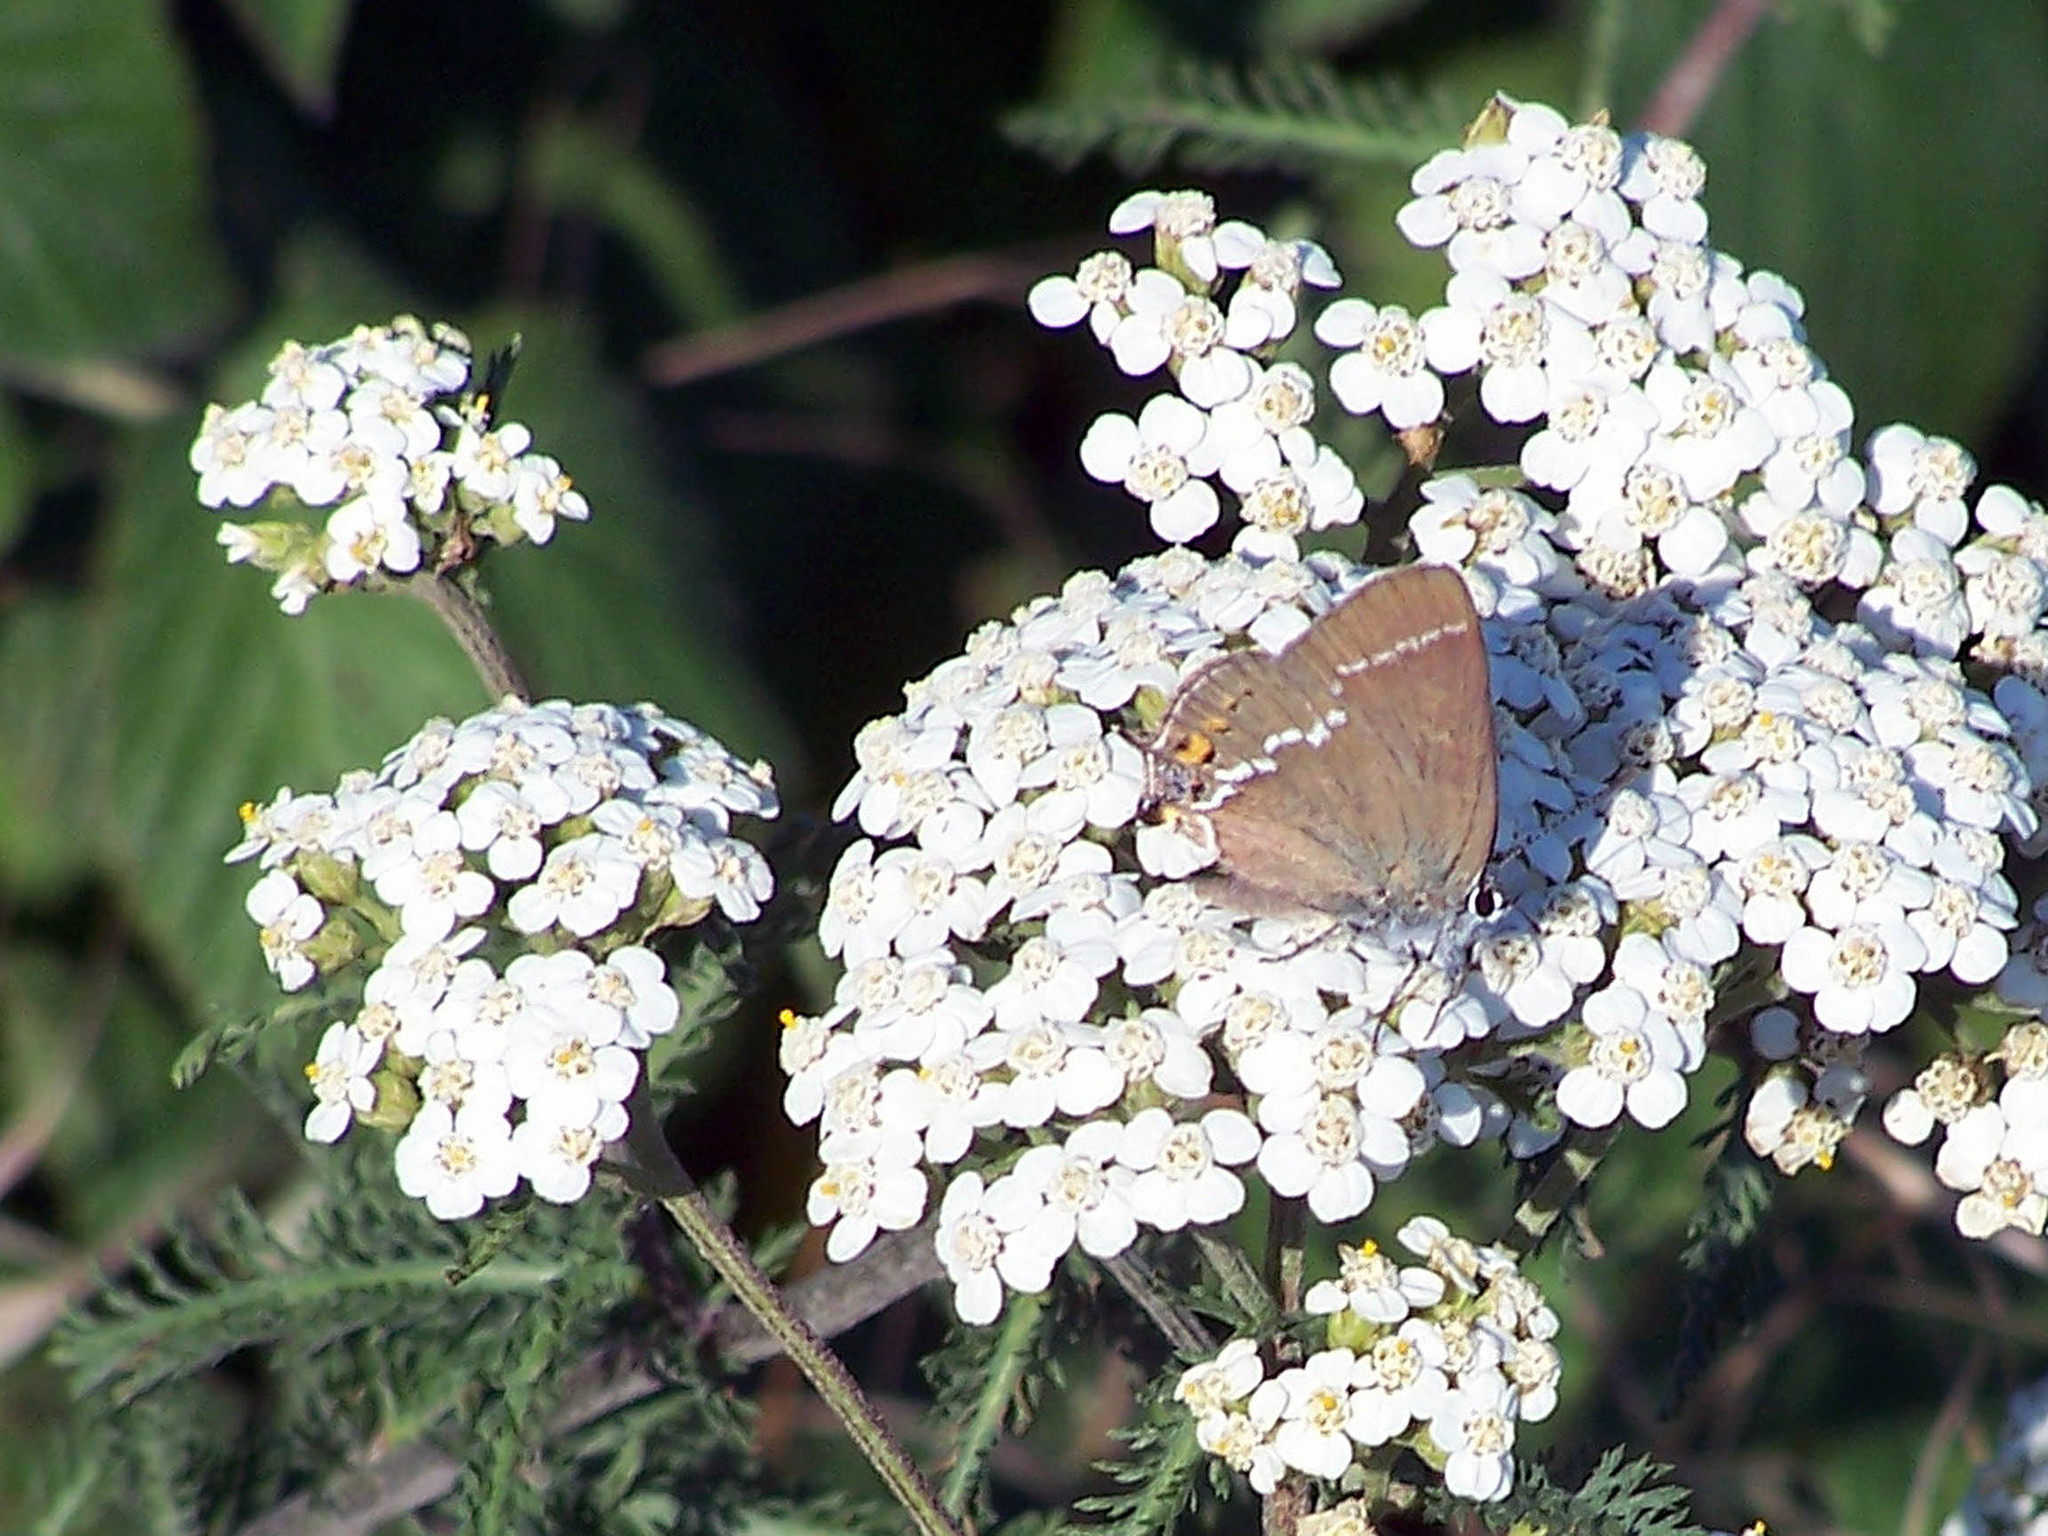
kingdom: Animalia
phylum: Arthropoda
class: Insecta
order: Lepidoptera
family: Lycaenidae
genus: Tuttiola
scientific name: Tuttiola spini
